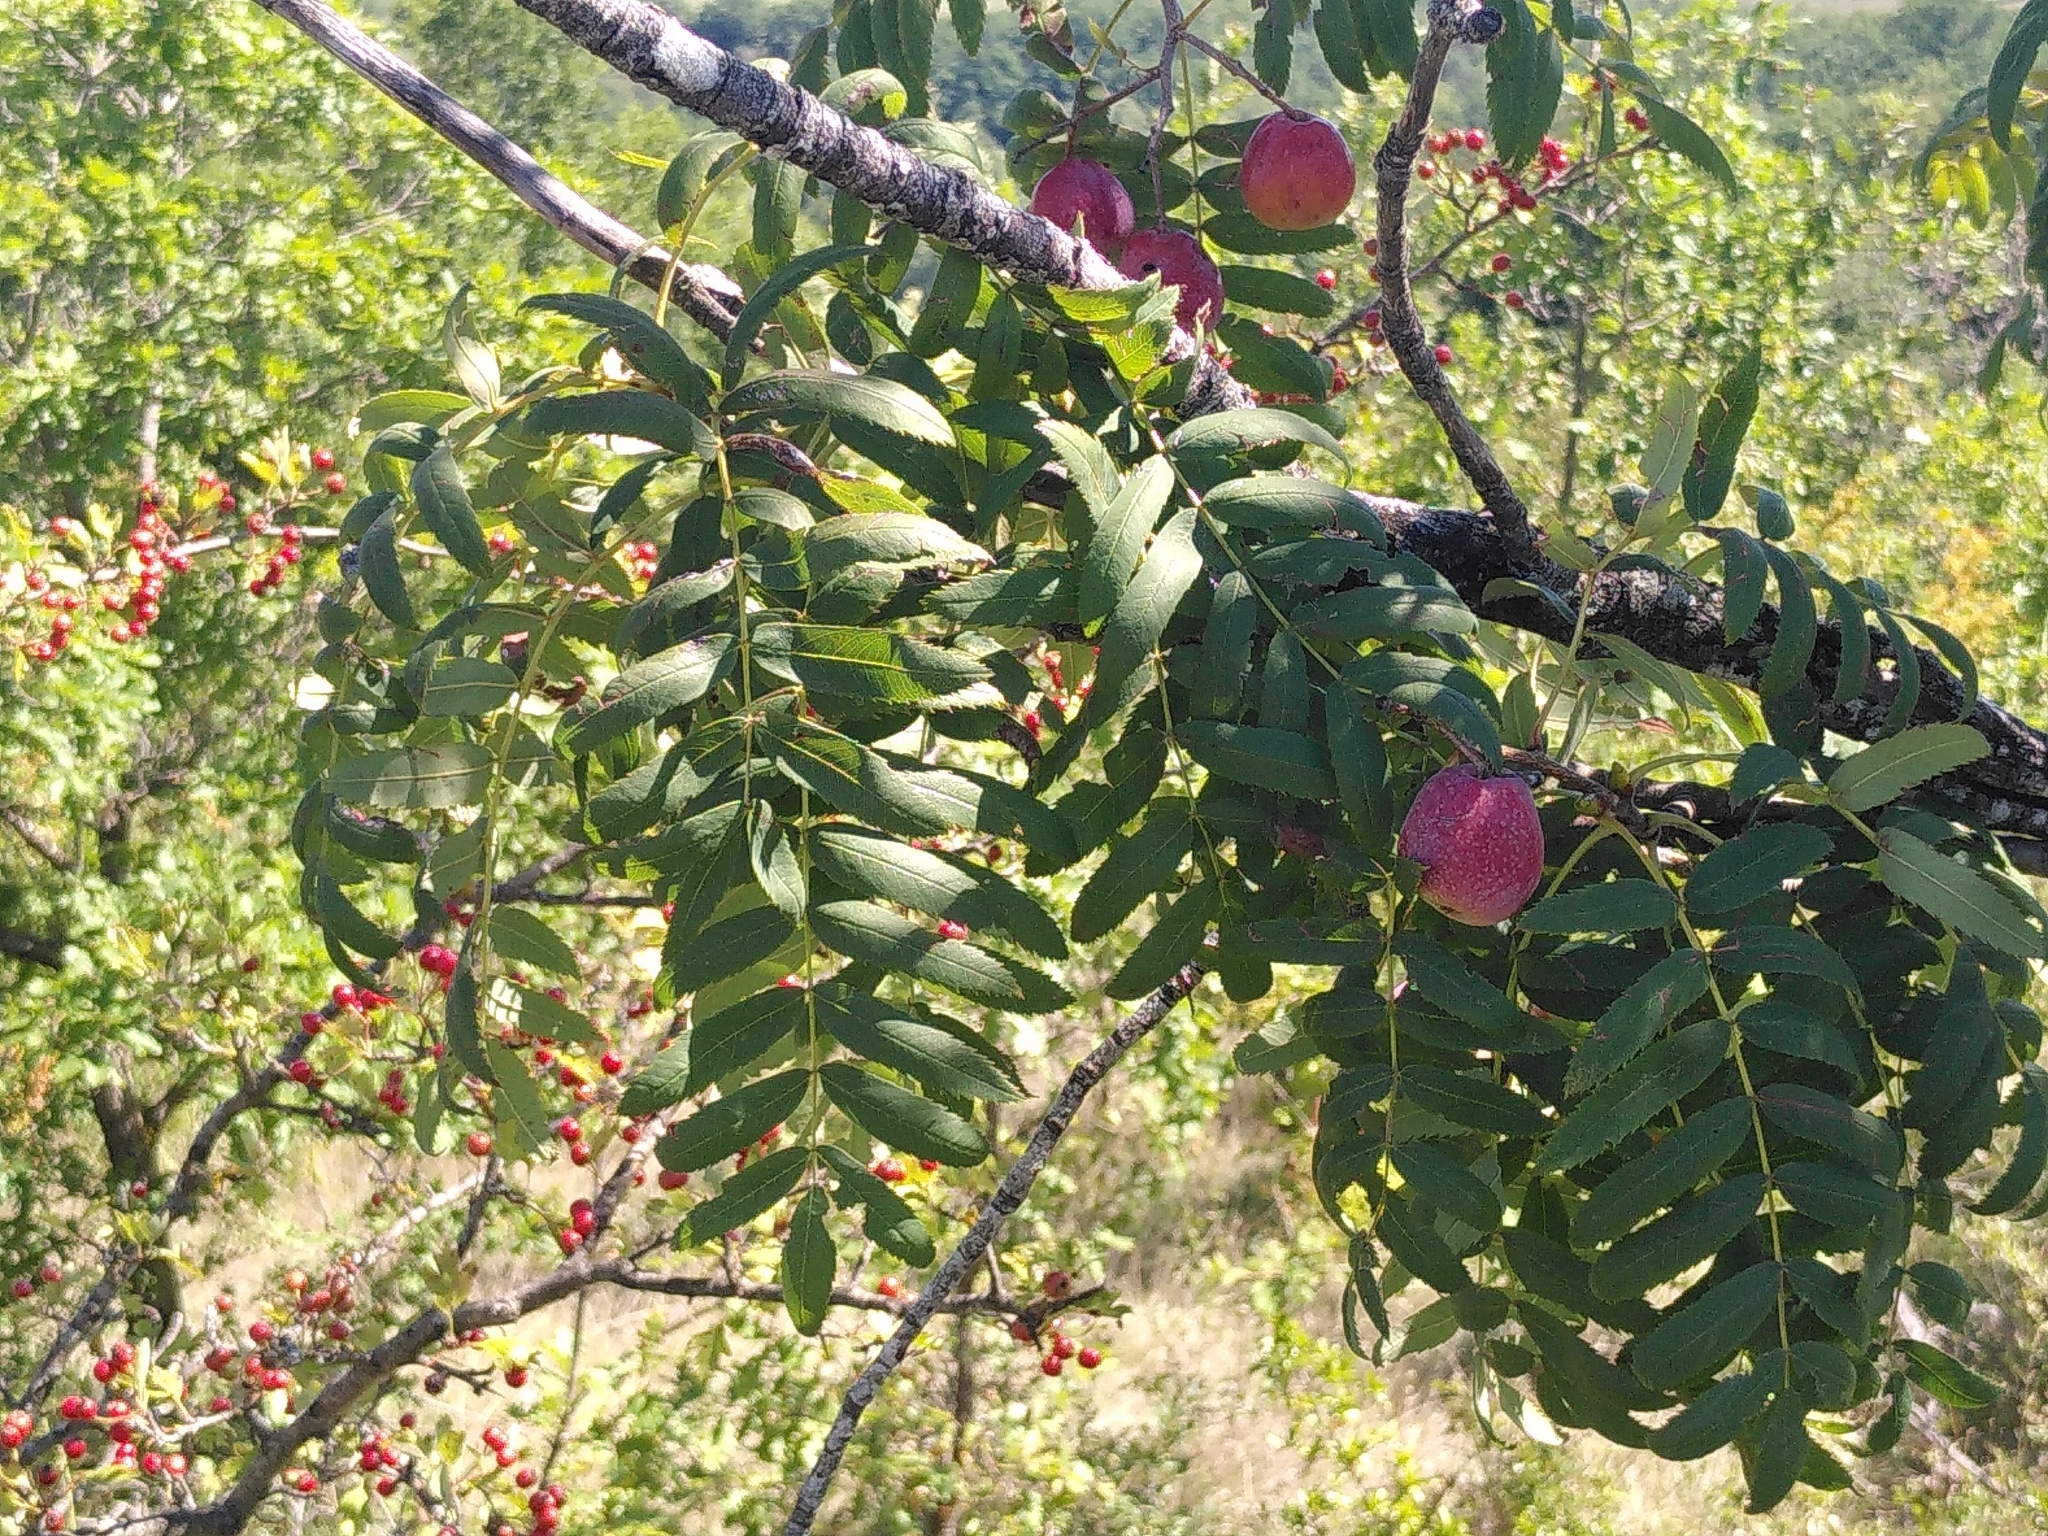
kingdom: Plantae
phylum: Tracheophyta
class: Magnoliopsida
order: Rosales
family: Rosaceae
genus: Cormus
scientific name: Cormus domestica
